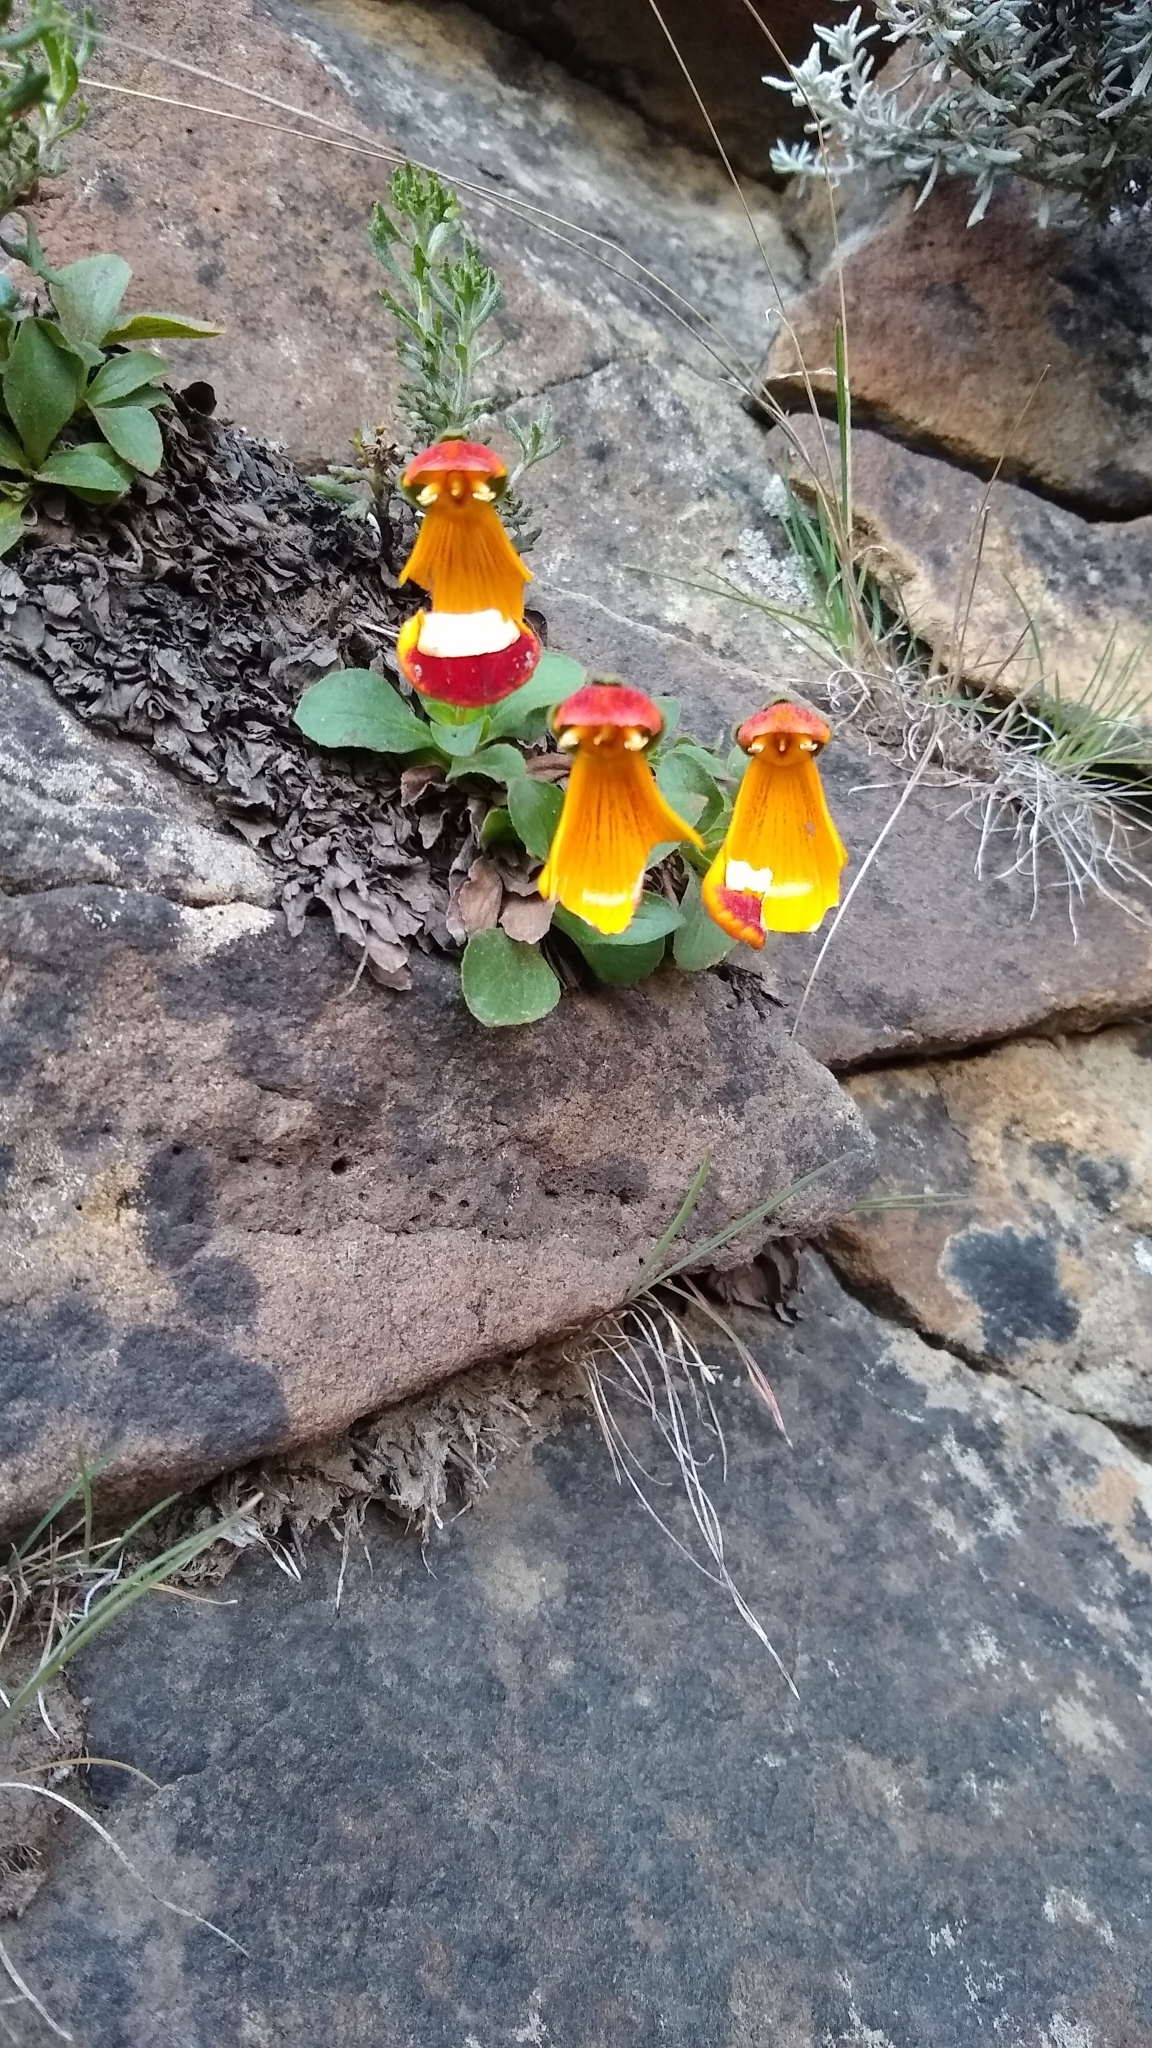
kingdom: Plantae
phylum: Tracheophyta
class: Magnoliopsida
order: Lamiales
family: Calceolariaceae
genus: Calceolaria
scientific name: Calceolaria uniflora
